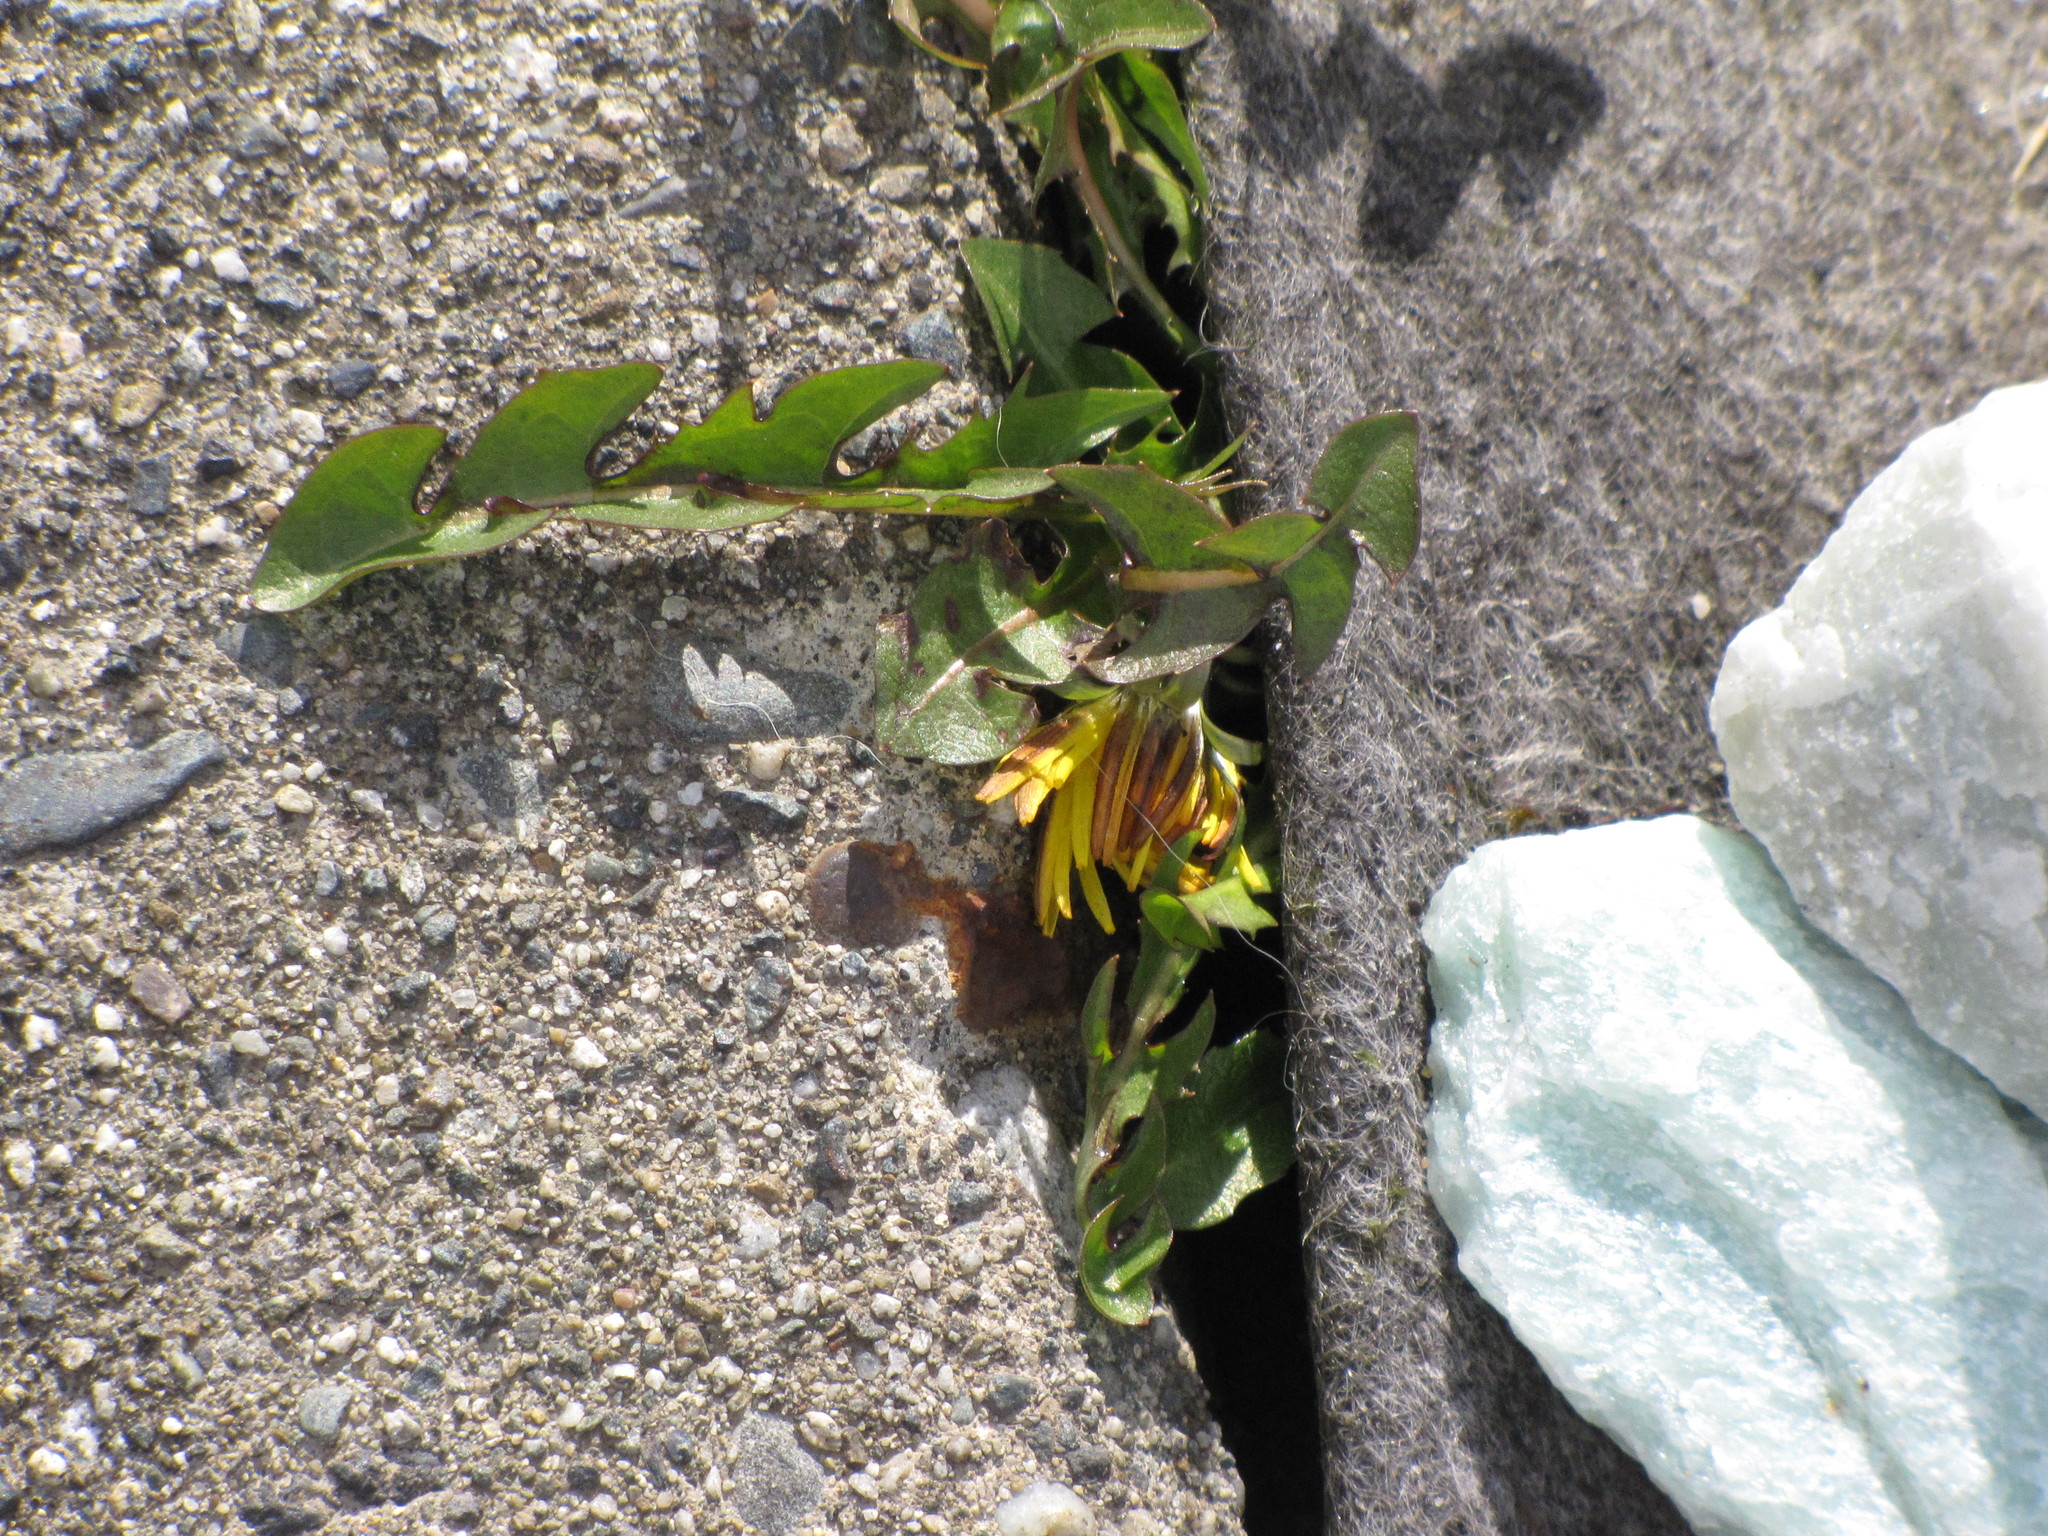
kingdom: Plantae
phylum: Tracheophyta
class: Magnoliopsida
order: Asterales
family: Asteraceae
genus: Taraxacum
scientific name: Taraxacum
